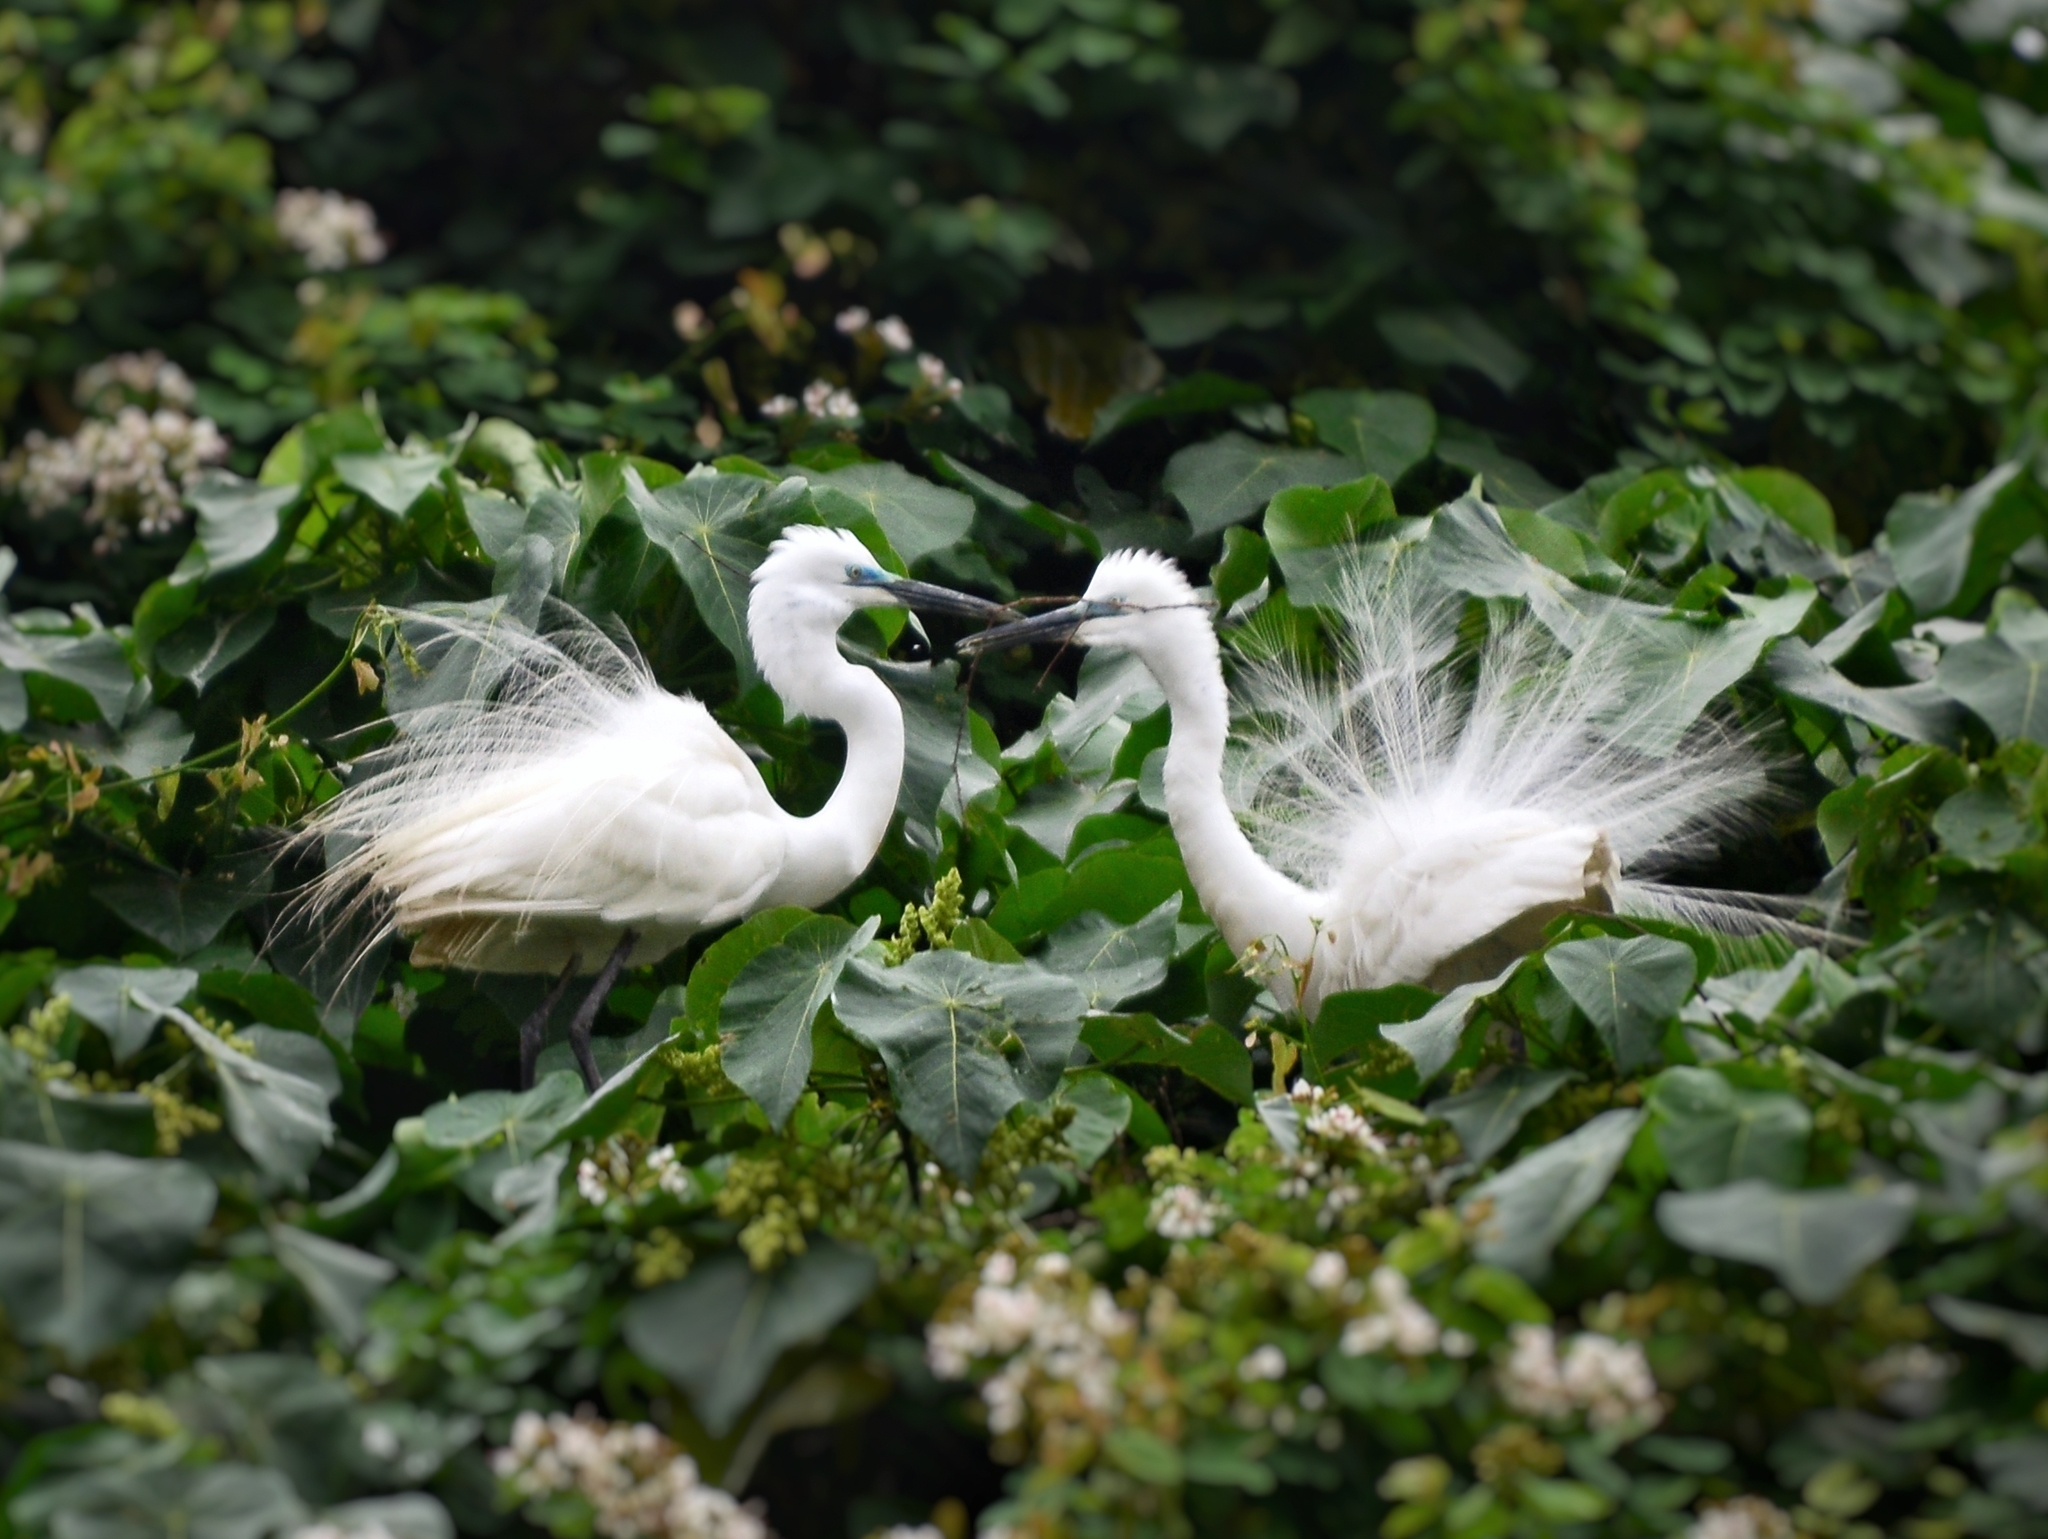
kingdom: Animalia
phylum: Chordata
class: Aves
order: Pelecaniformes
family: Ardeidae
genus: Egretta
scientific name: Egretta garzetta
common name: Little egret
